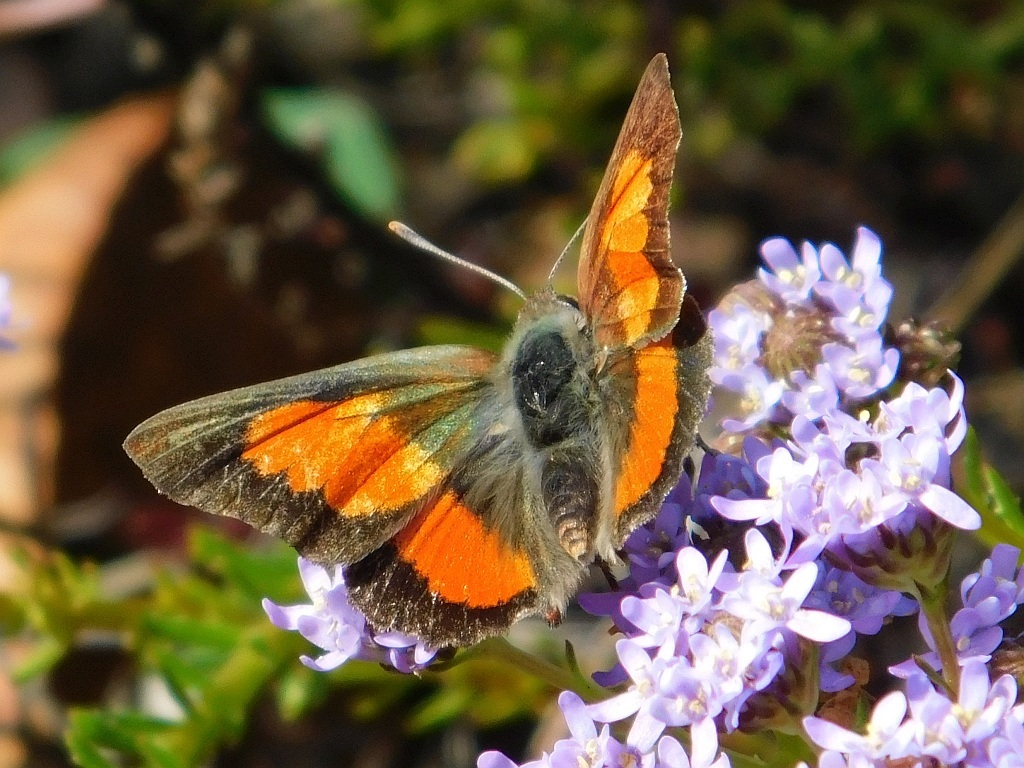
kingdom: Animalia
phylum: Arthropoda
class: Insecta
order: Lepidoptera
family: Lycaenidae
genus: Capys
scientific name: Capys alpheus
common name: Orange-banded protea butterfly
